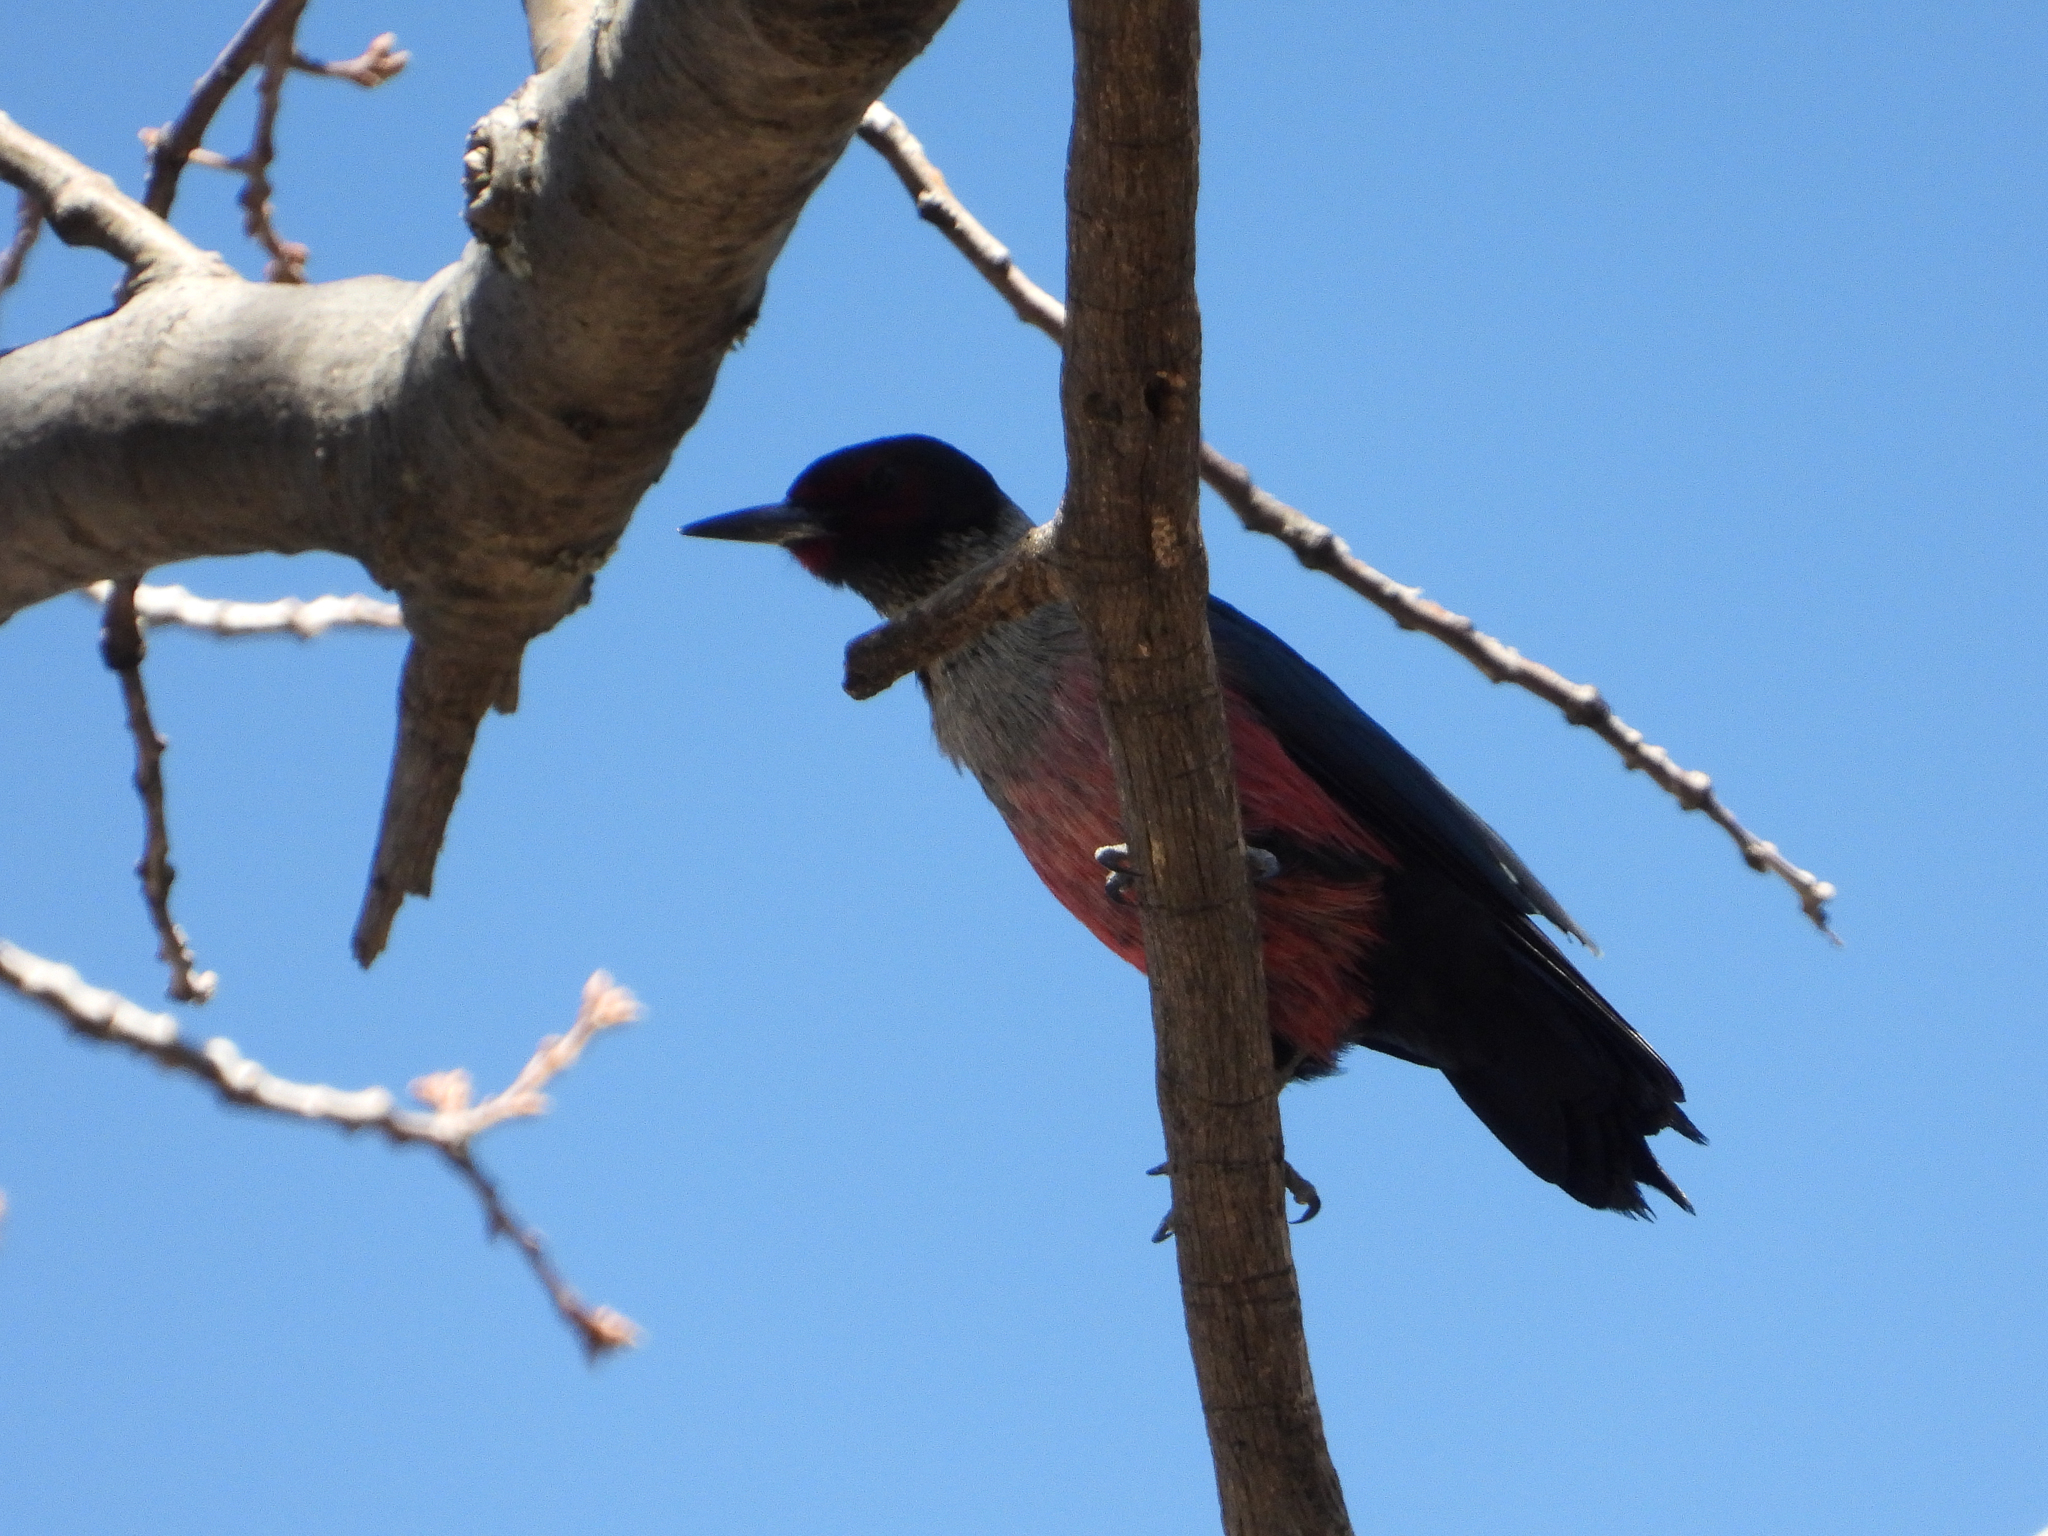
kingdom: Animalia
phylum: Chordata
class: Aves
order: Piciformes
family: Picidae
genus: Melanerpes
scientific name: Melanerpes lewis
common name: Lewis's woodpecker
